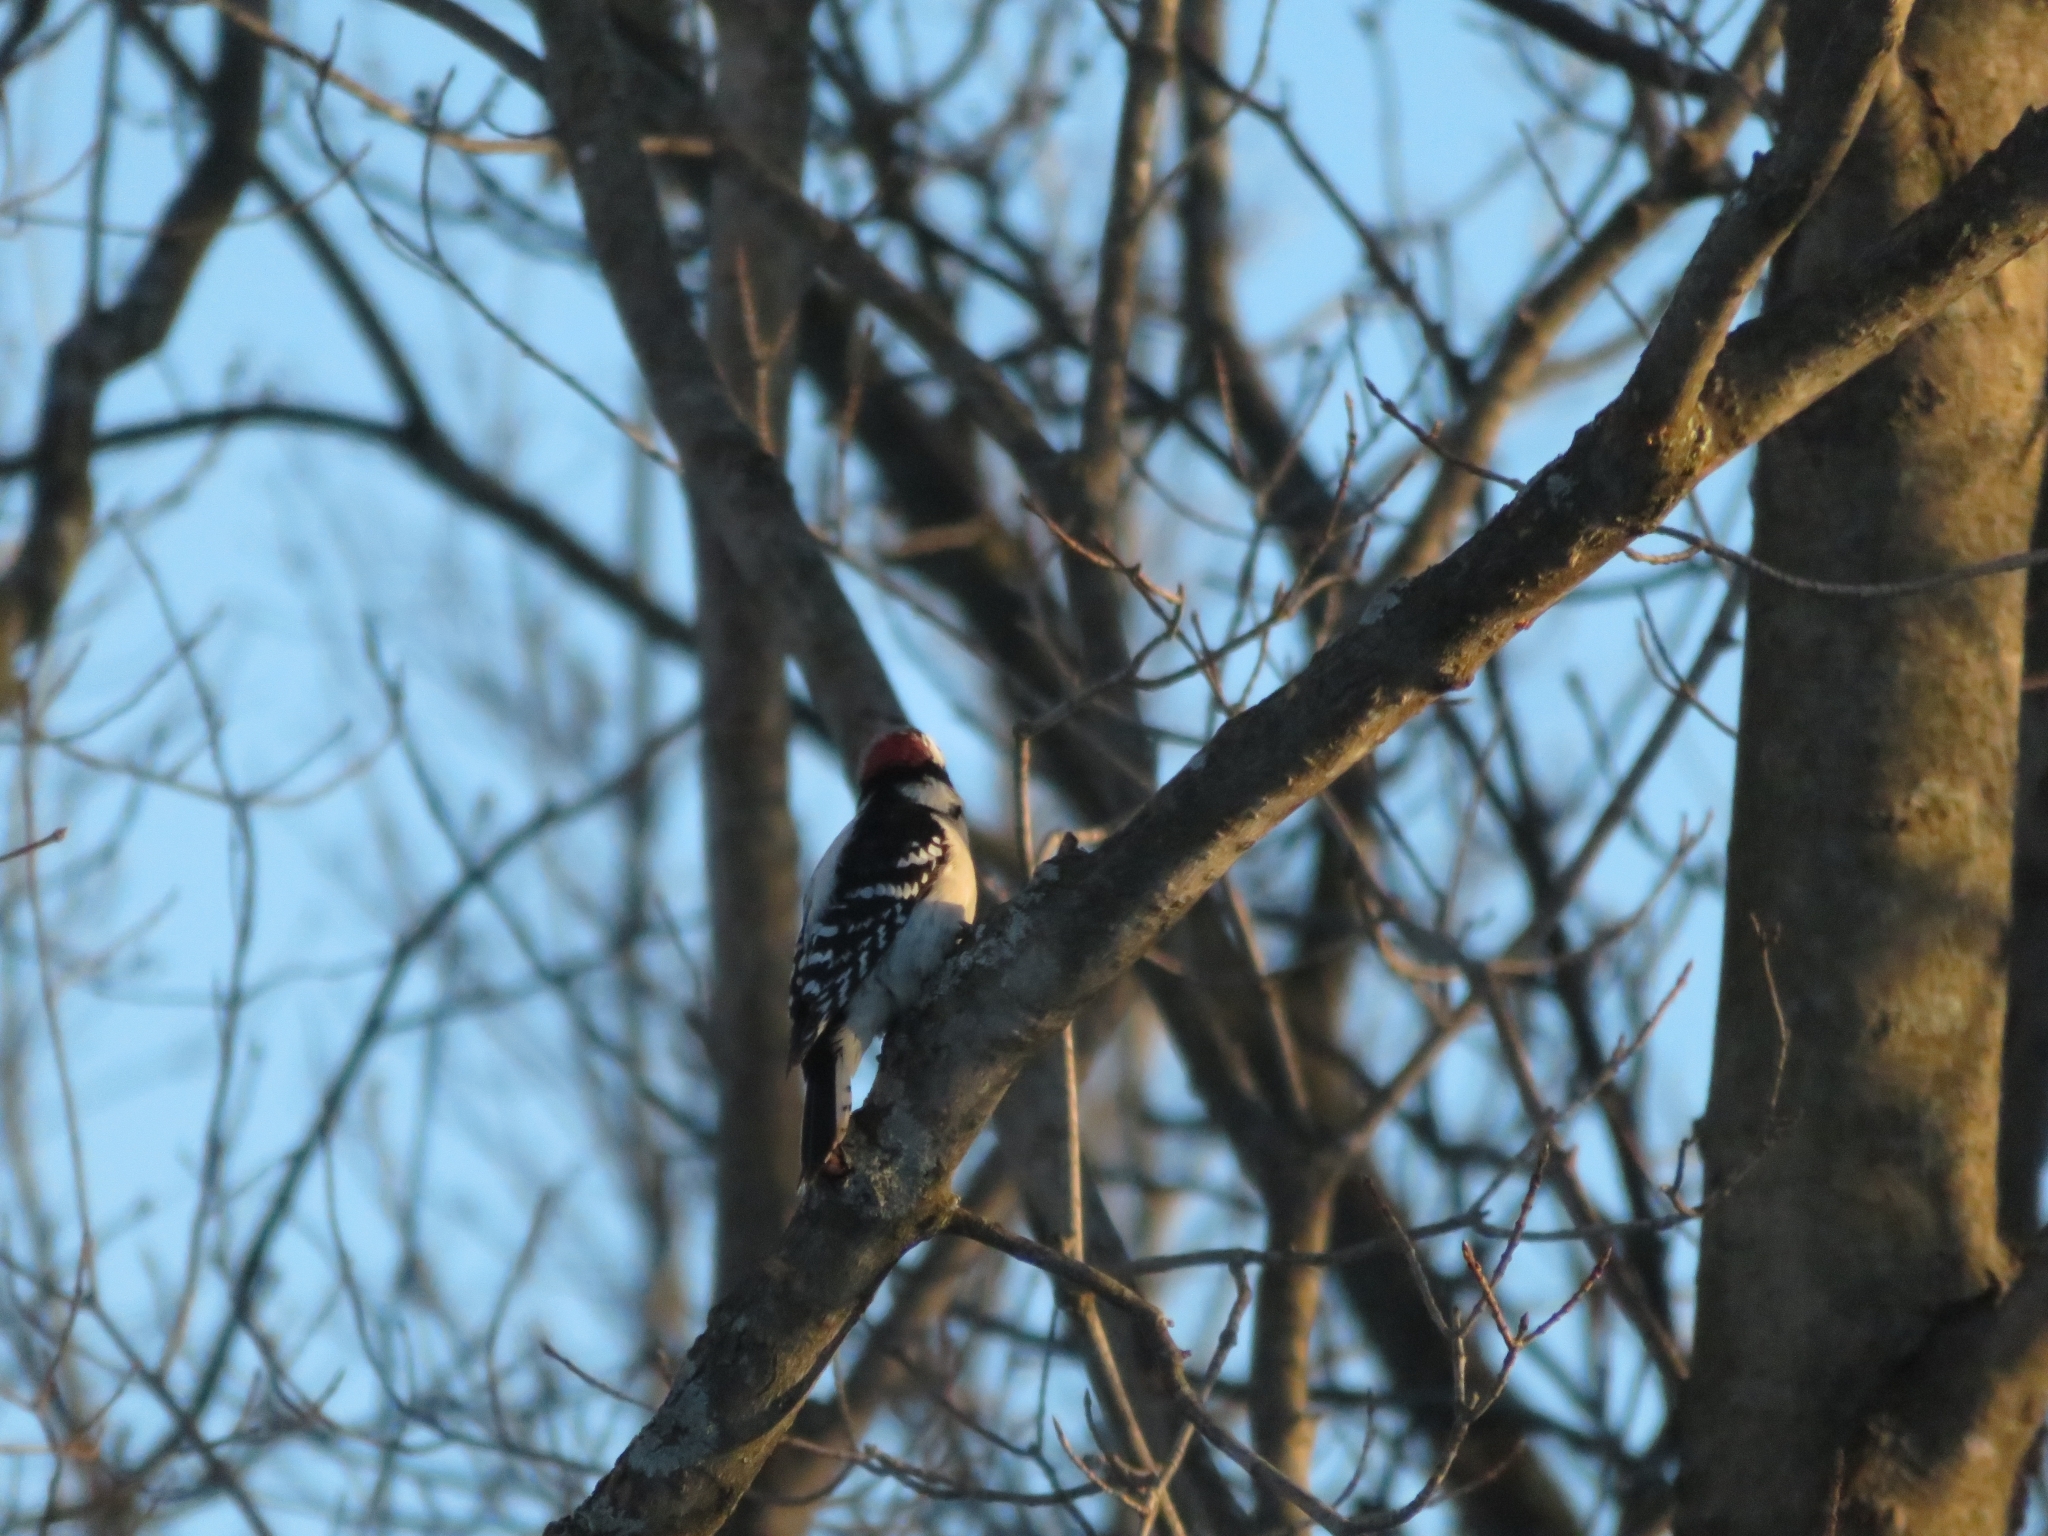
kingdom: Animalia
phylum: Chordata
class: Aves
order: Piciformes
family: Picidae
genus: Dryobates
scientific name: Dryobates pubescens
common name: Downy woodpecker
